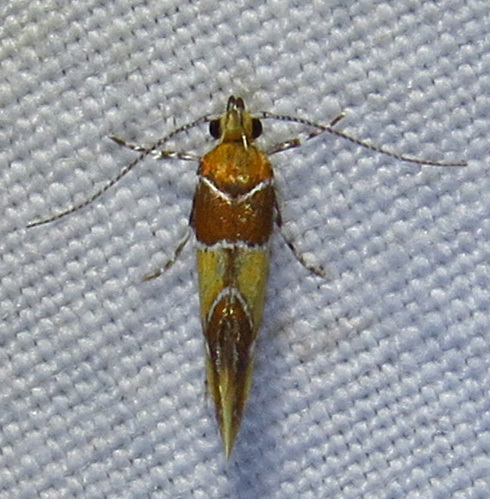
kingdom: Animalia
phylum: Arthropoda
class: Insecta
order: Lepidoptera
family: Oecophoridae
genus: Callima
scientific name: Callima argenticinctella
